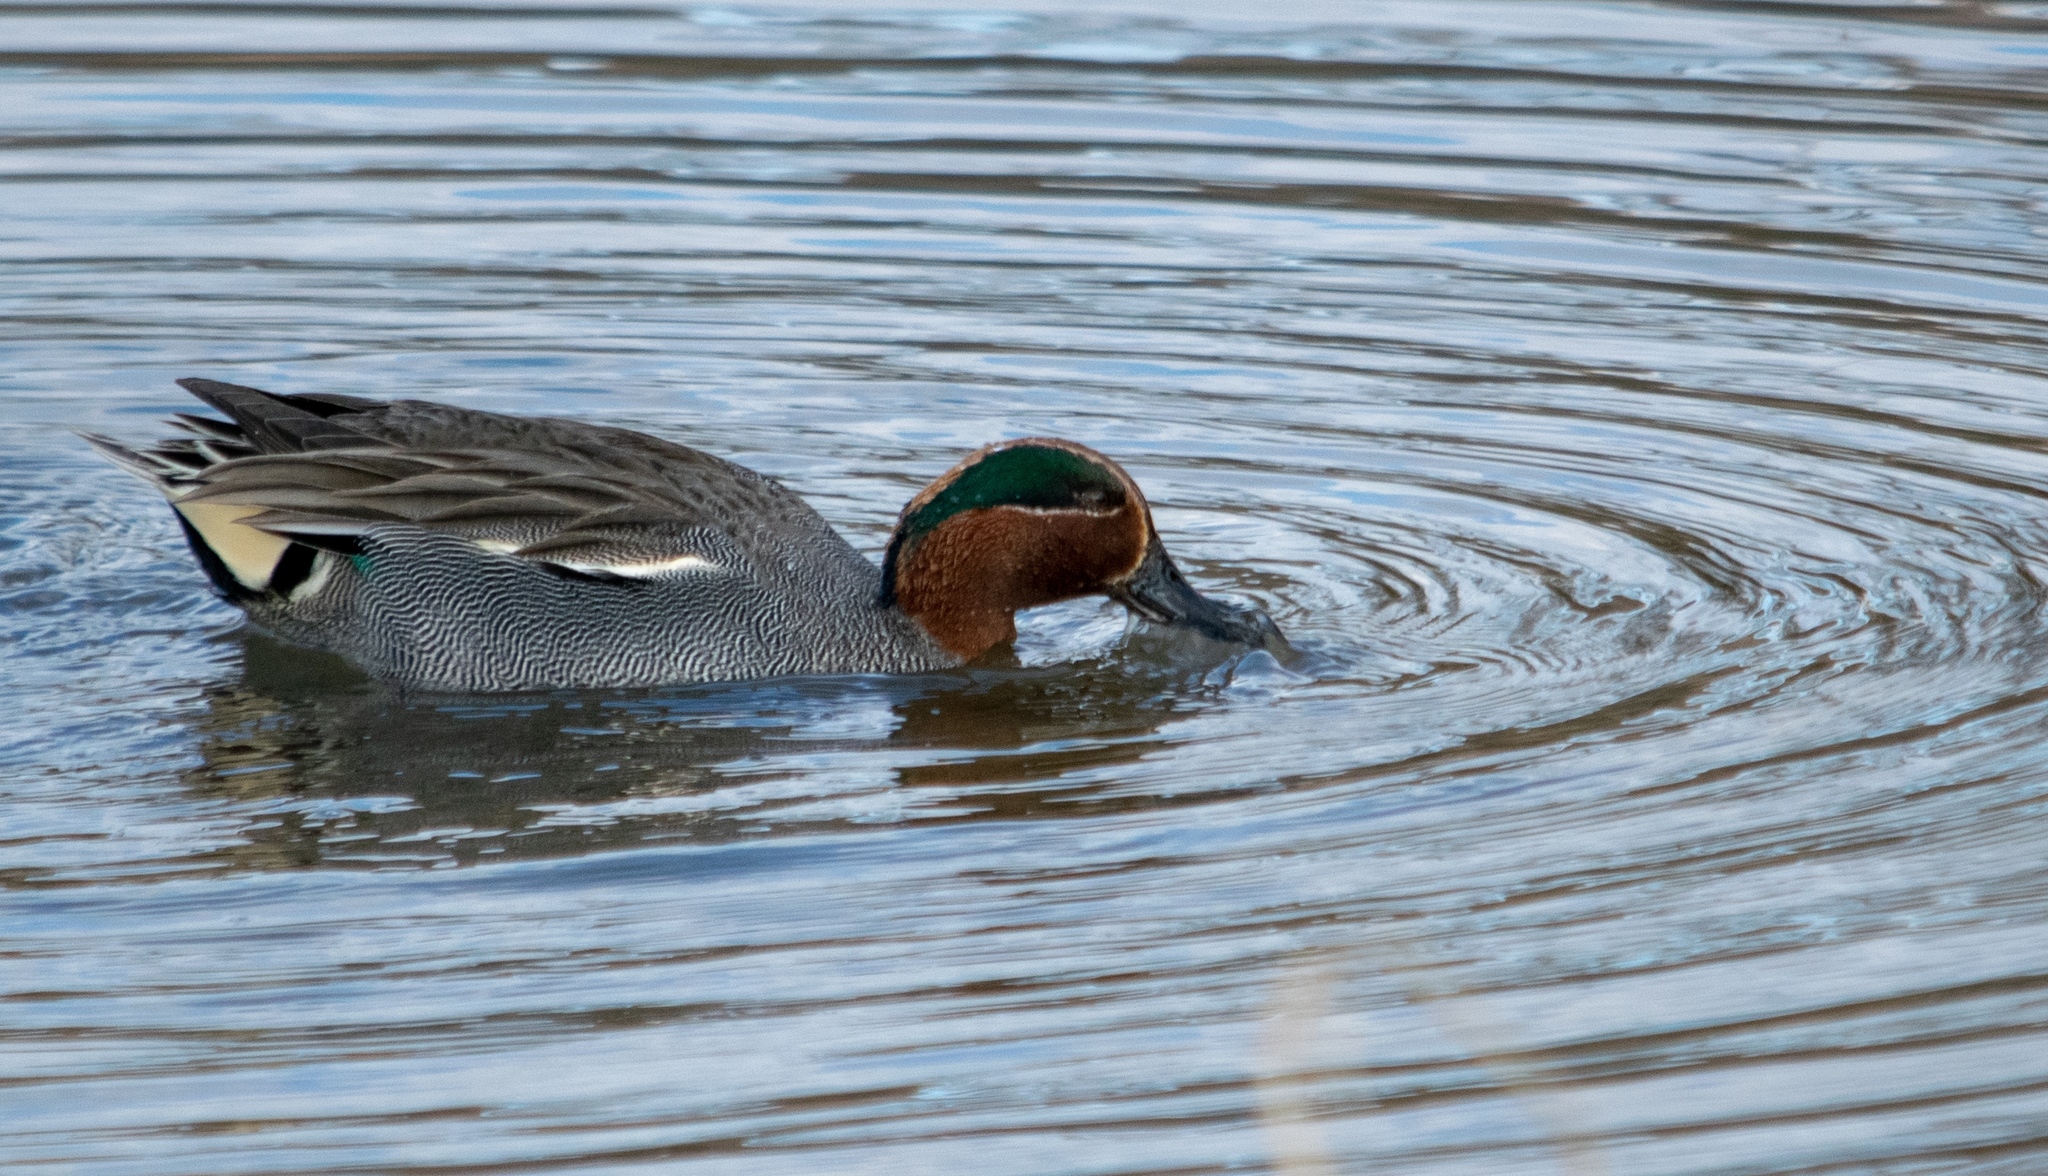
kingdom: Animalia
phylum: Chordata
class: Aves
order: Anseriformes
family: Anatidae
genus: Anas
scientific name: Anas crecca
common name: Eurasian teal
